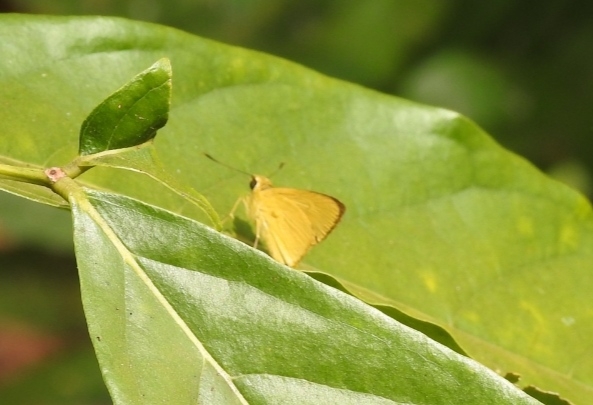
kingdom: Animalia
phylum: Arthropoda
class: Insecta
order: Lepidoptera
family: Hesperiidae
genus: Cupitha
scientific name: Cupitha purreea
